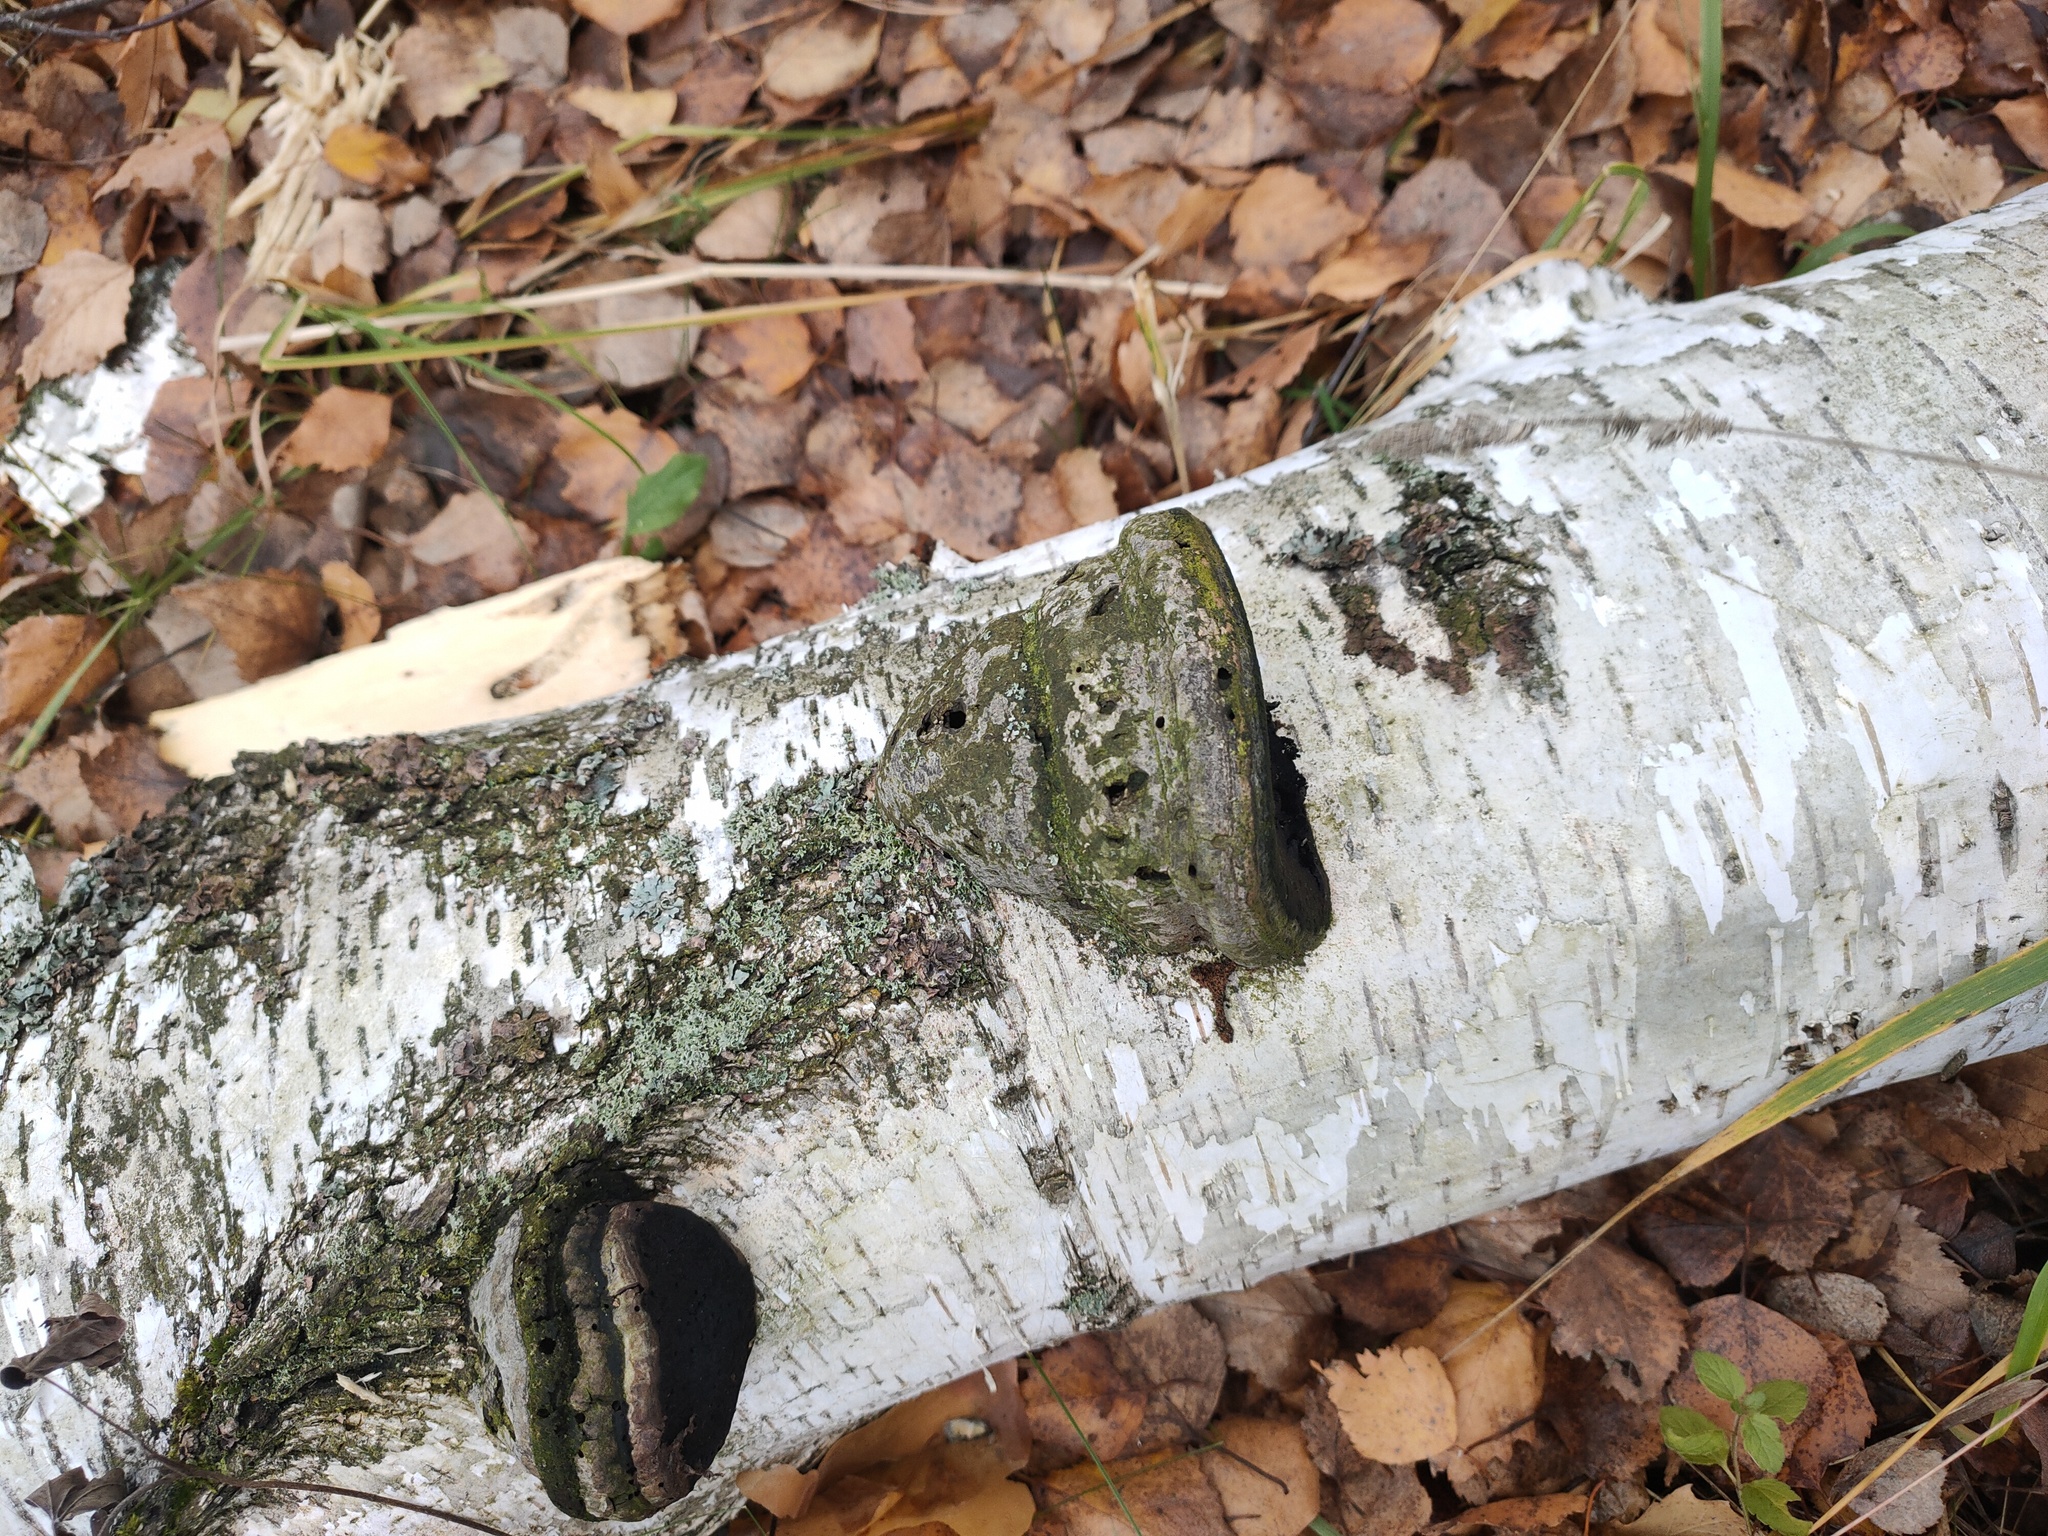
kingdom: Fungi
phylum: Basidiomycota
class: Agaricomycetes
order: Polyporales
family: Polyporaceae
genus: Fomes
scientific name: Fomes fomentarius
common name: Hoof fungus
